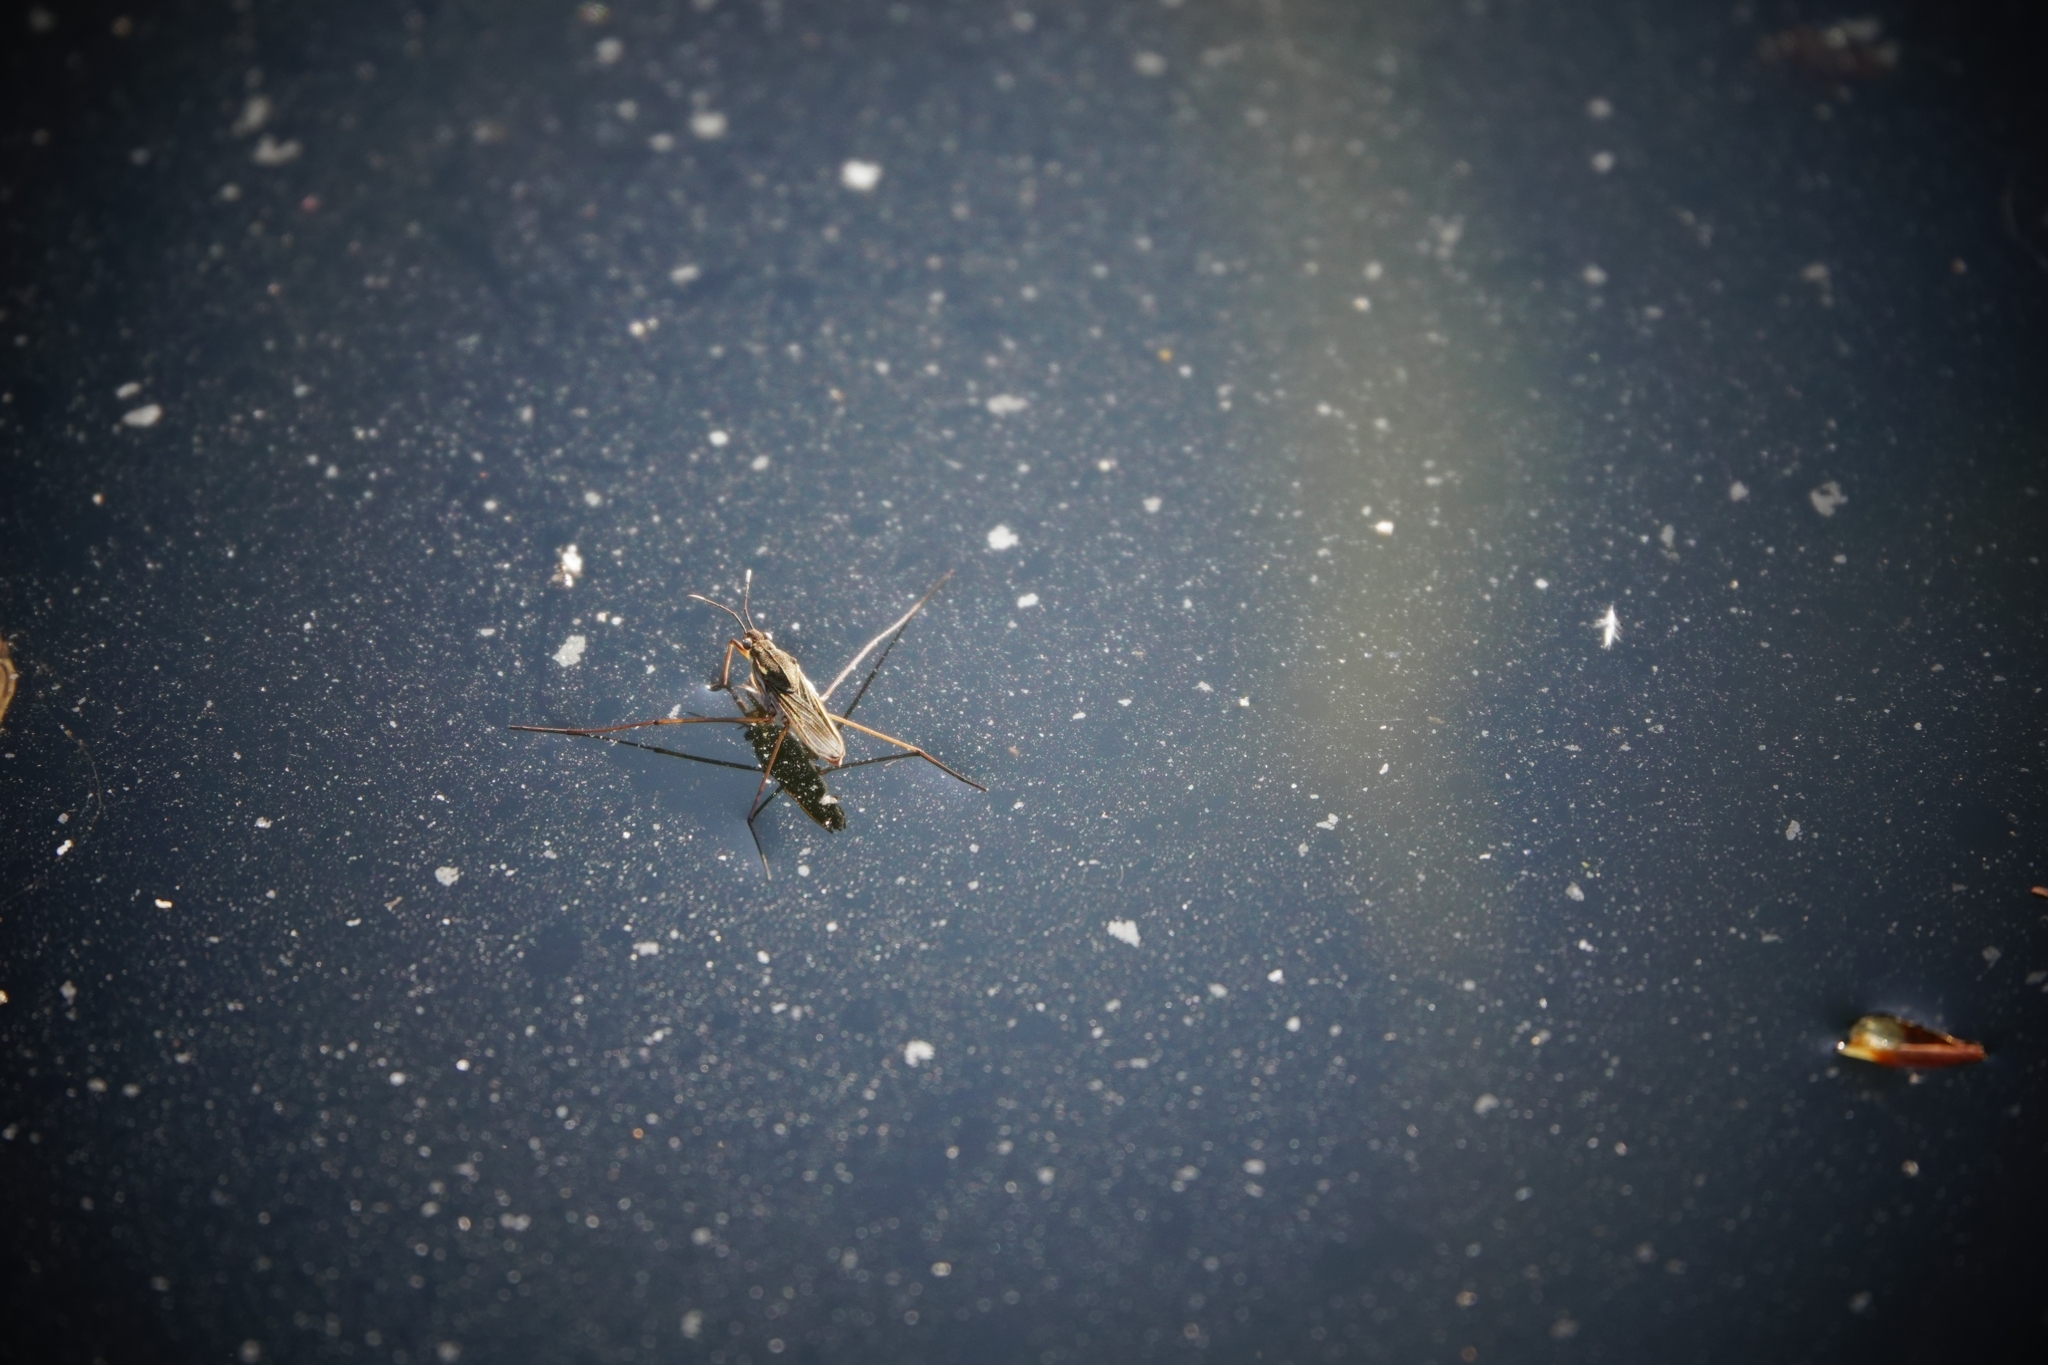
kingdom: Animalia
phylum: Arthropoda
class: Insecta
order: Hemiptera
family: Gerridae
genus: Gerris
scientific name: Gerris lacustris
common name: Common pondskater
